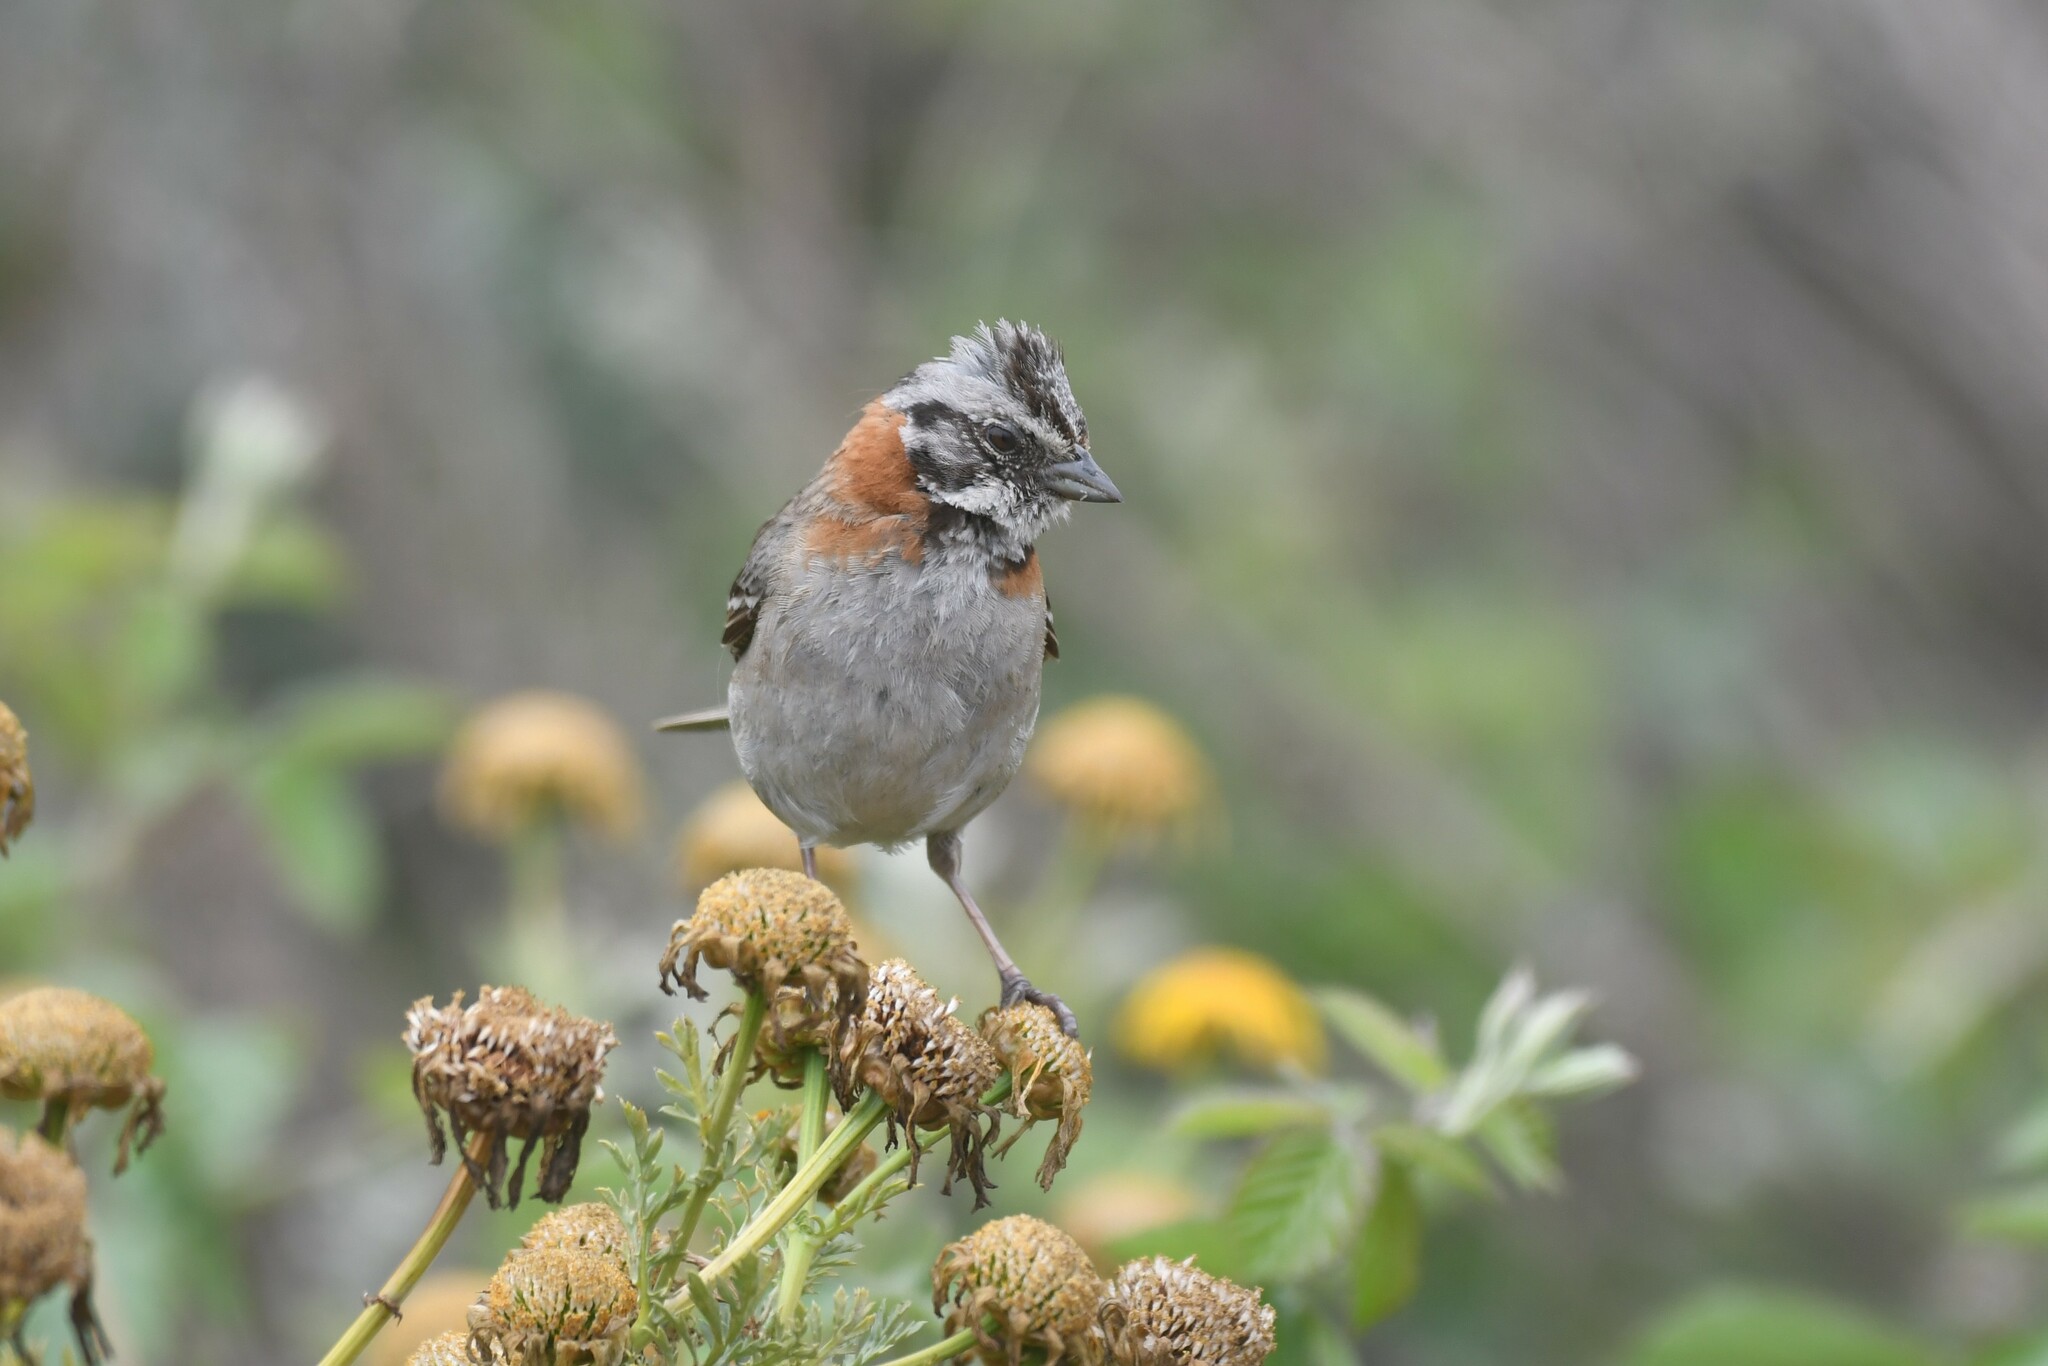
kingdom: Animalia
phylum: Chordata
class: Aves
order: Passeriformes
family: Passerellidae
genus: Zonotrichia
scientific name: Zonotrichia capensis
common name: Rufous-collared sparrow
